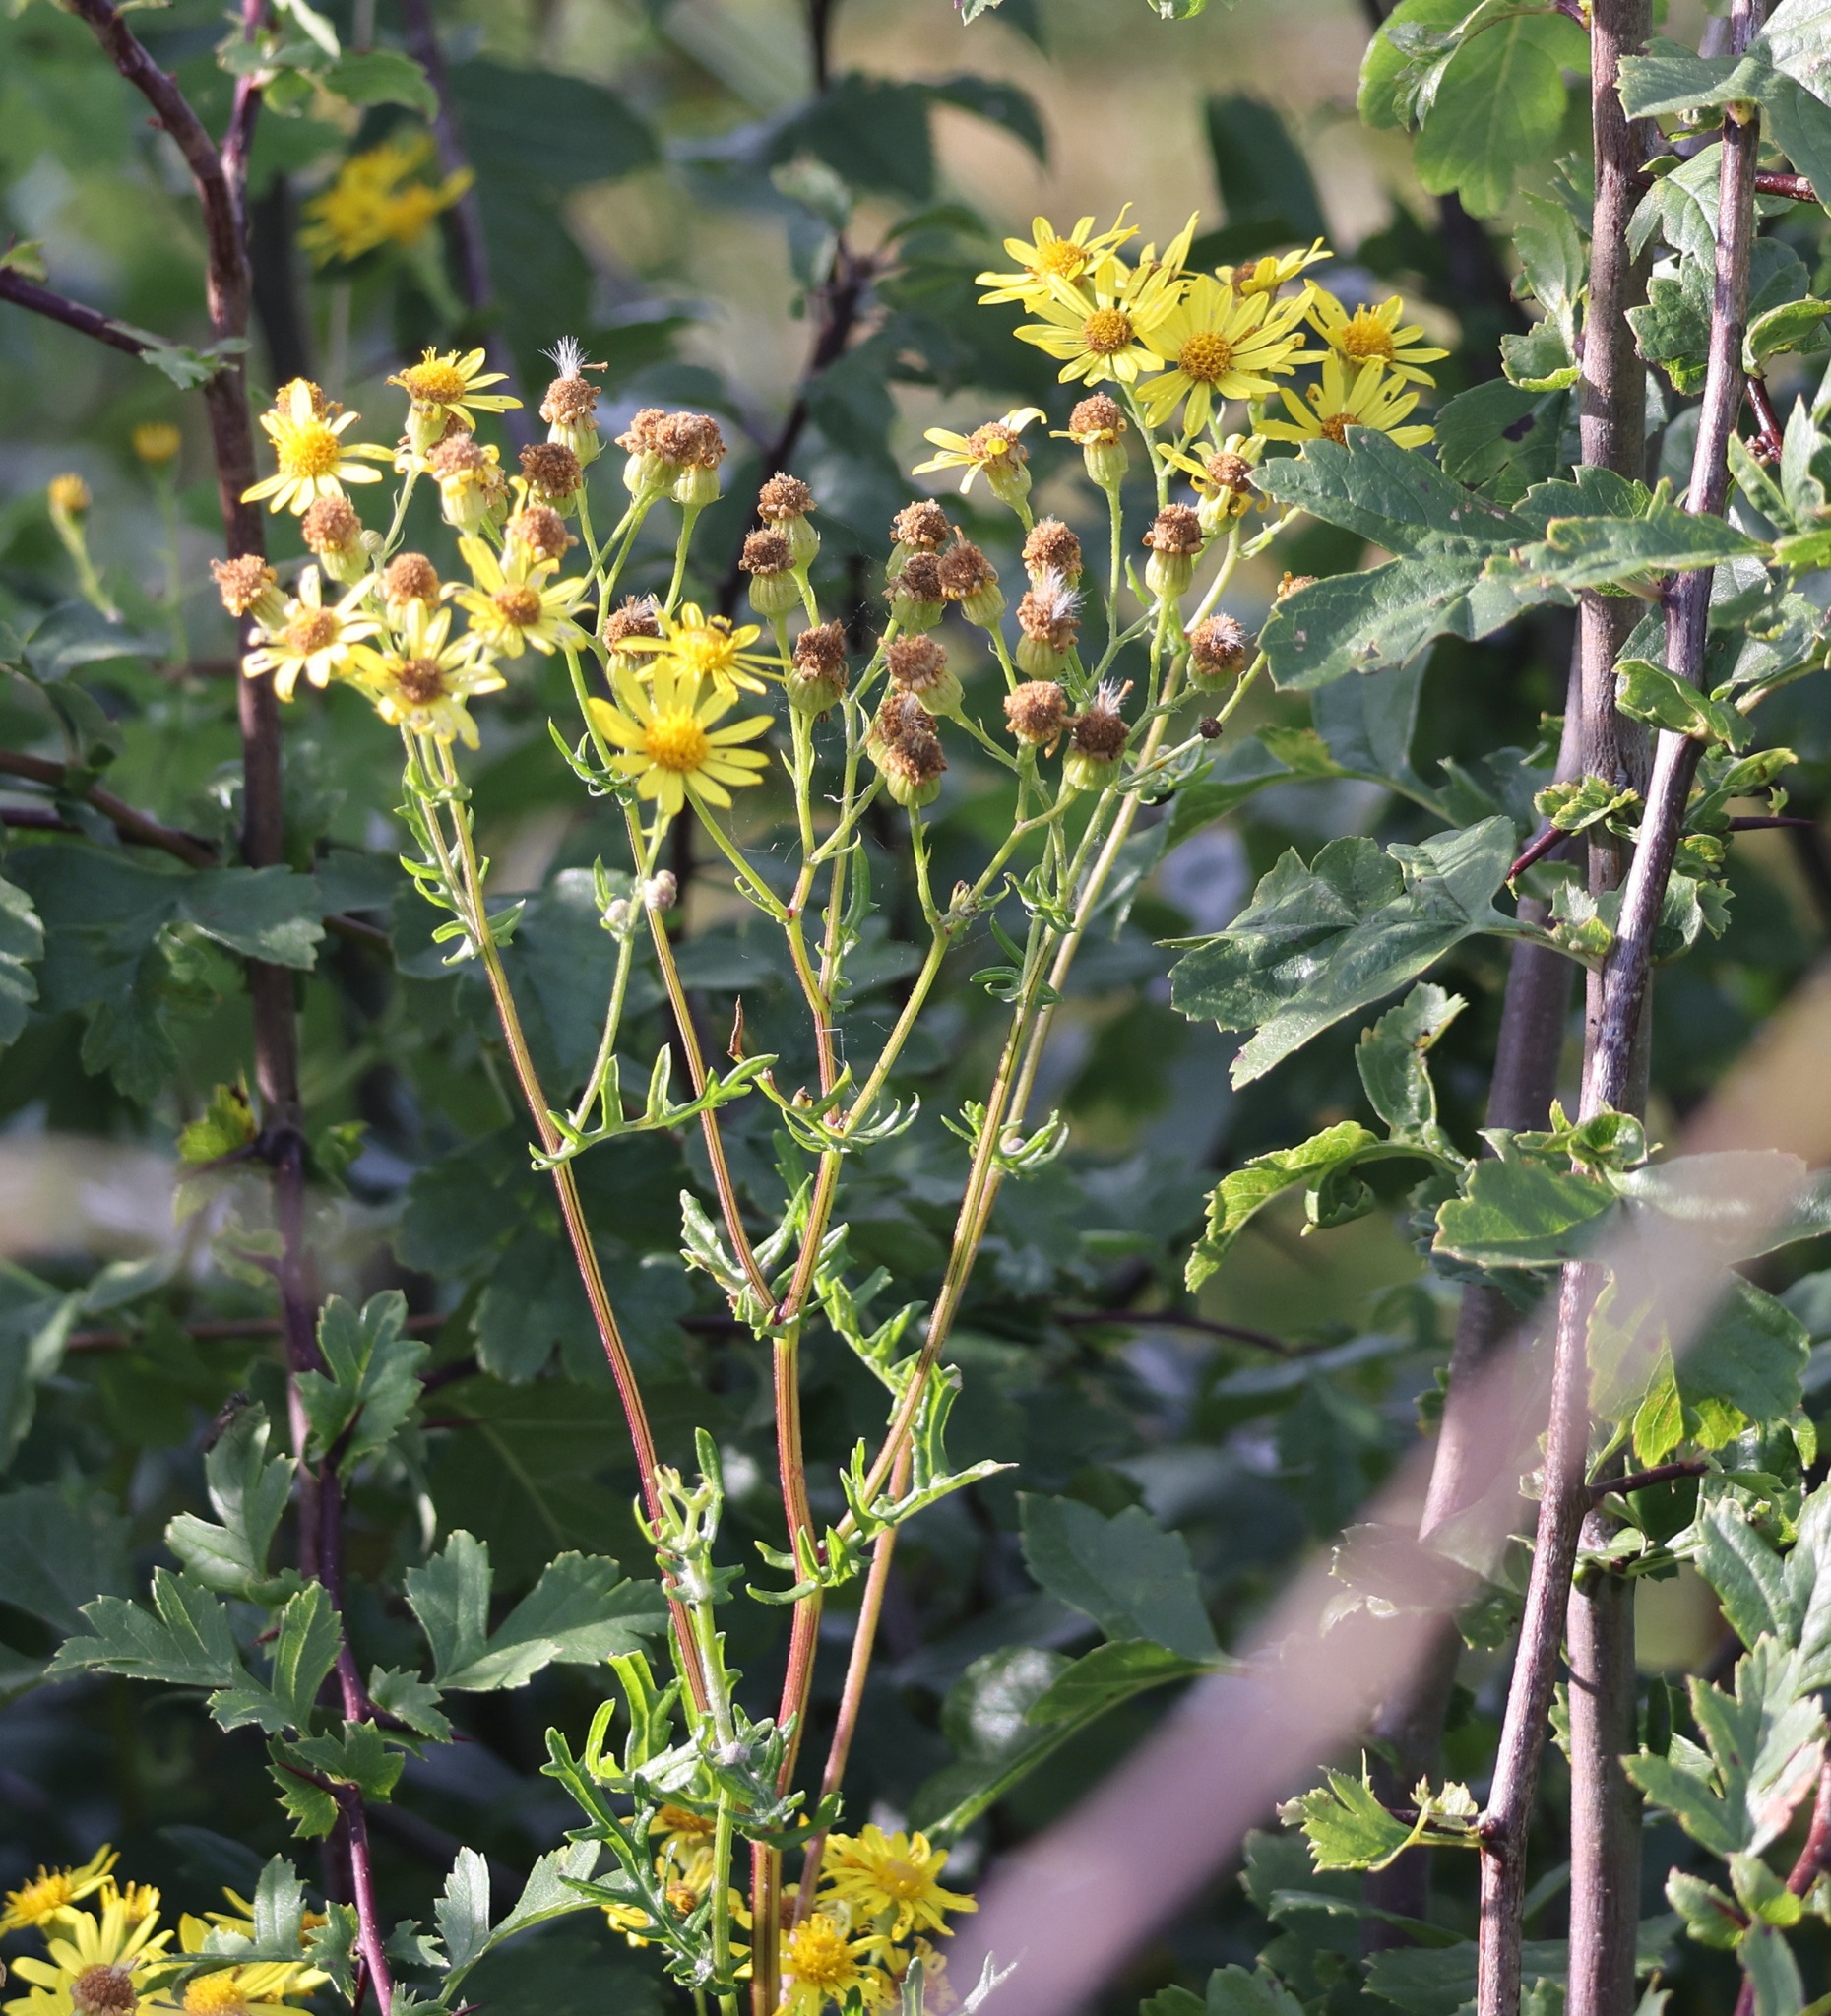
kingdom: Plantae
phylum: Tracheophyta
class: Magnoliopsida
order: Asterales
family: Asteraceae
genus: Jacobaea
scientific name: Jacobaea vulgaris
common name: Stinking willie
